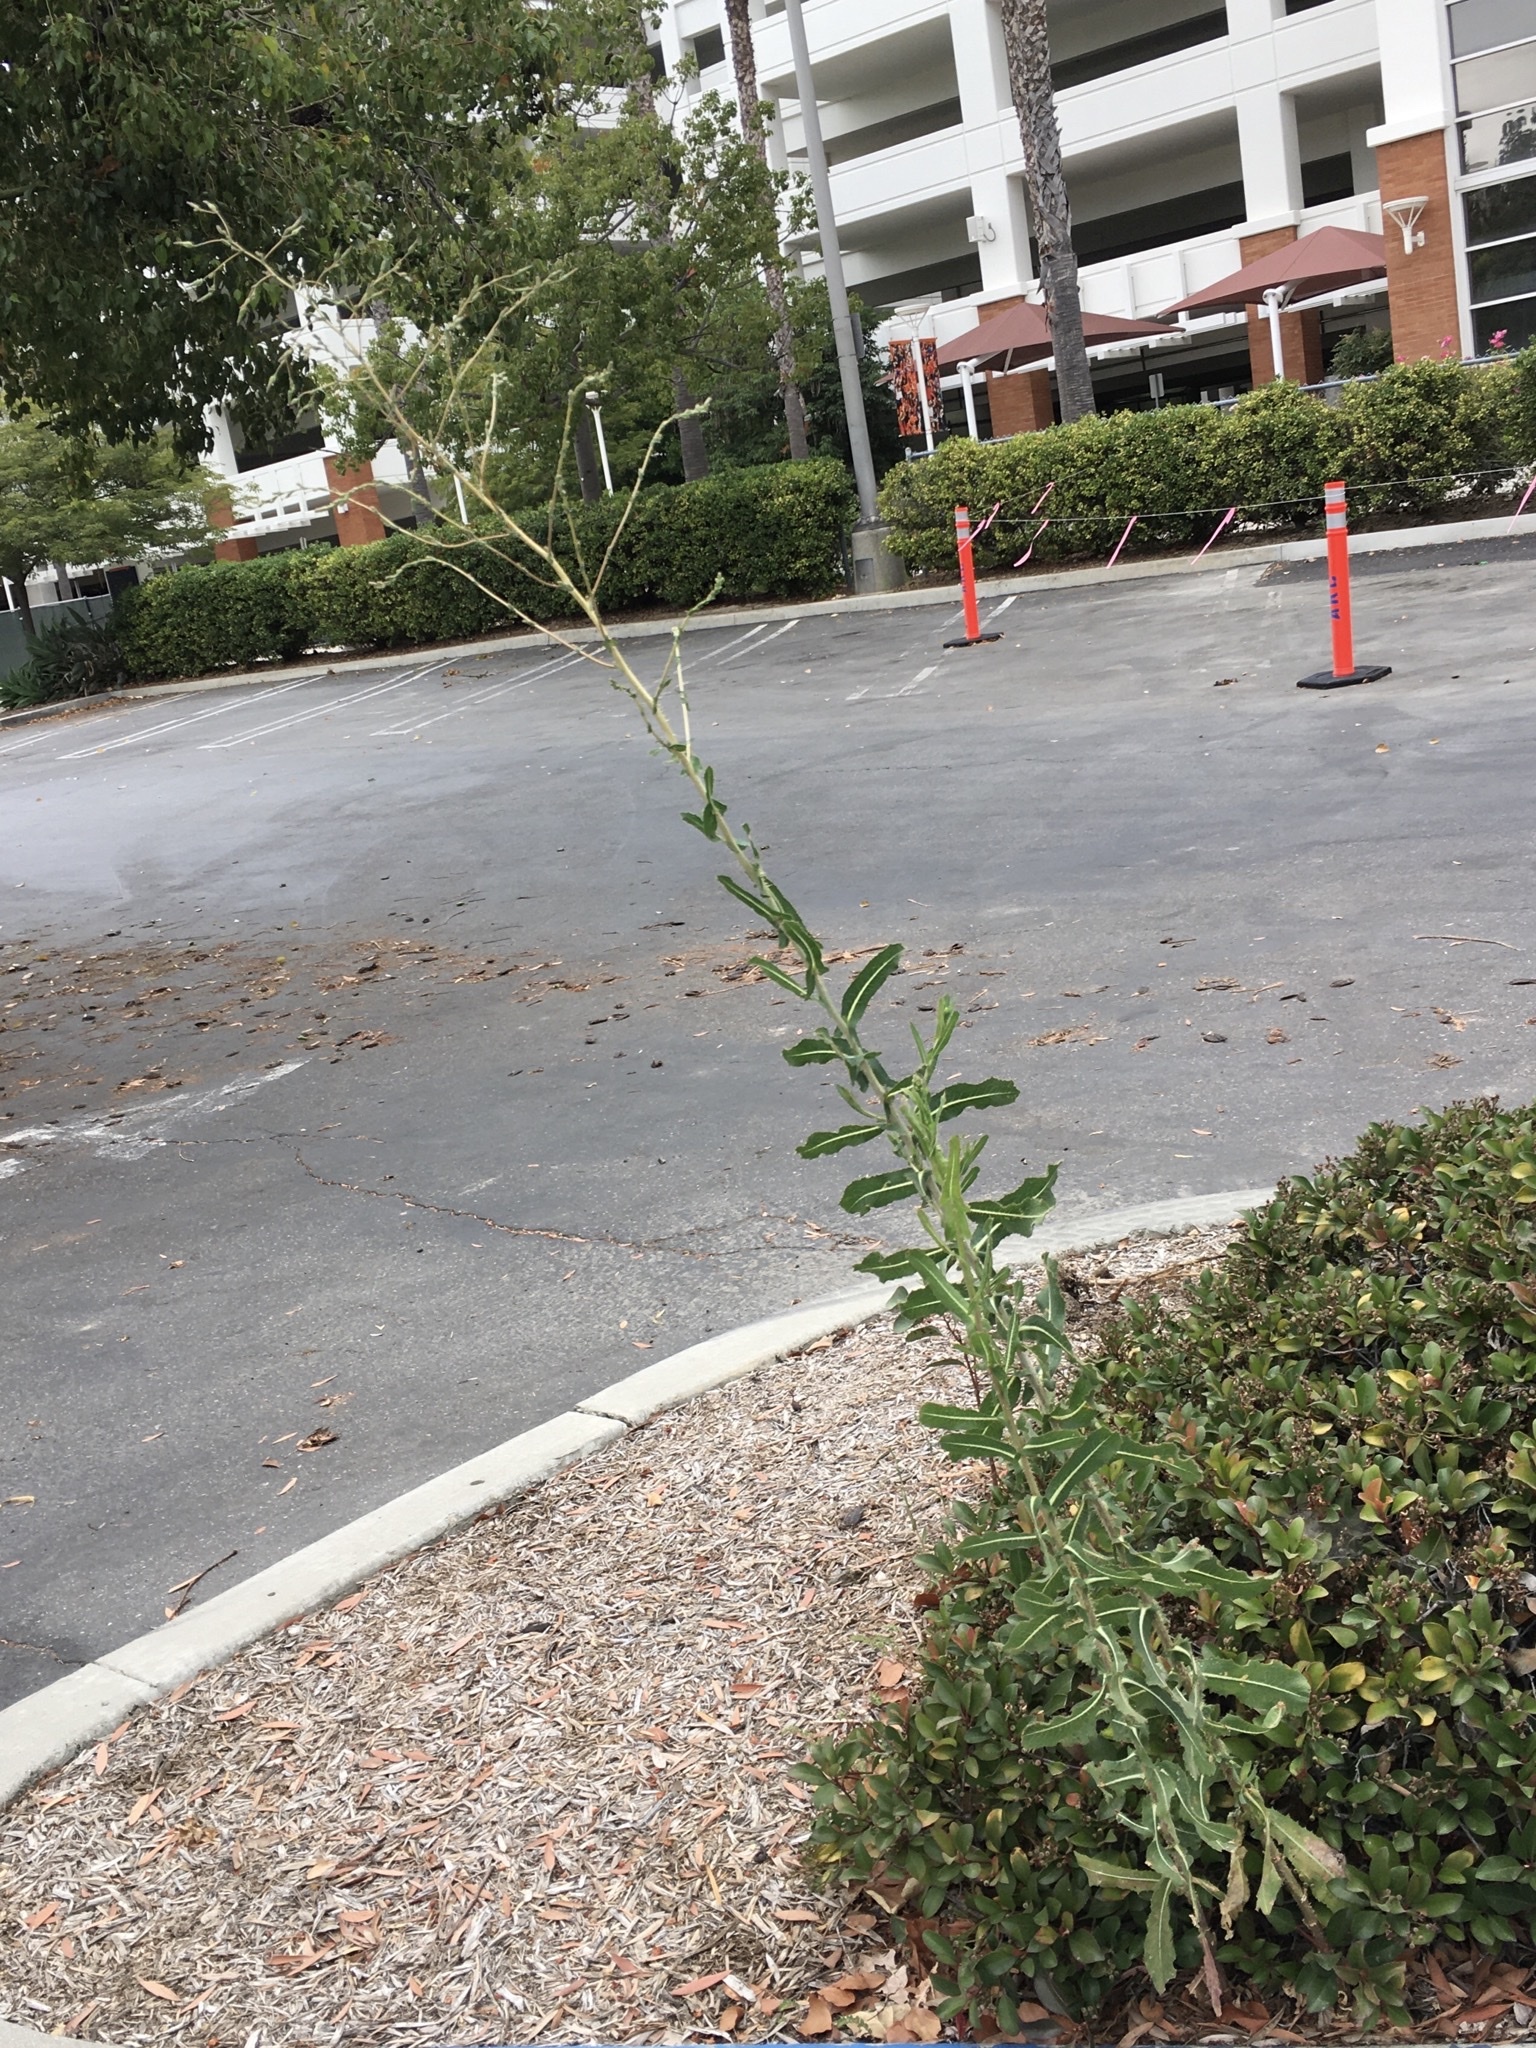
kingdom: Plantae
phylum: Tracheophyta
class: Magnoliopsida
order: Asterales
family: Asteraceae
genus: Lactuca
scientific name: Lactuca serriola
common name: Prickly lettuce
